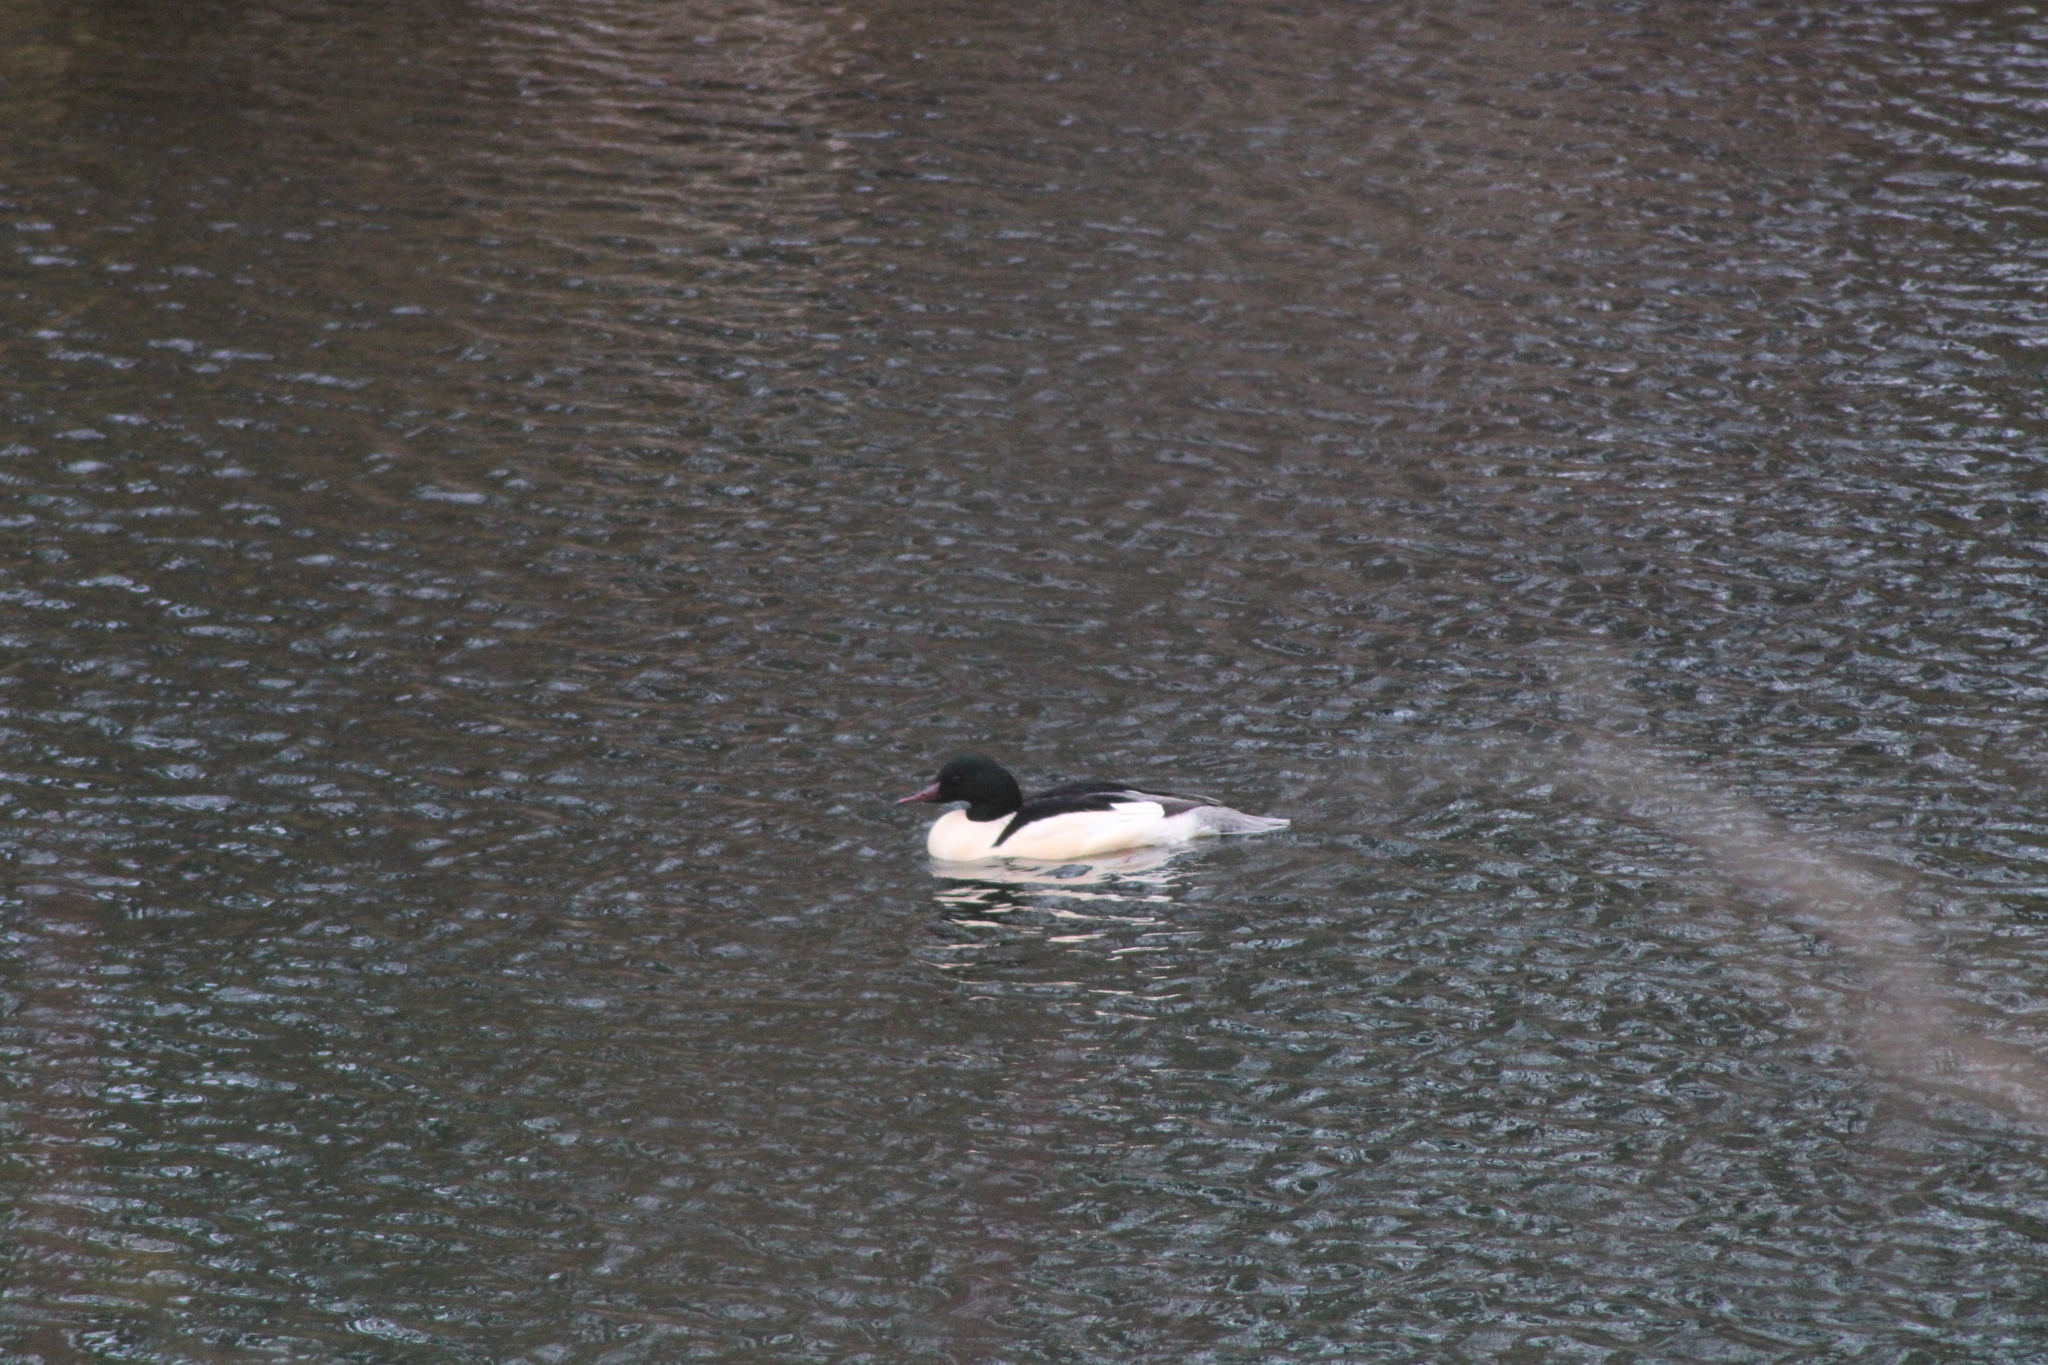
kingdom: Animalia
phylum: Chordata
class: Aves
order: Anseriformes
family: Anatidae
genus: Mergus
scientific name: Mergus merganser
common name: Common merganser
